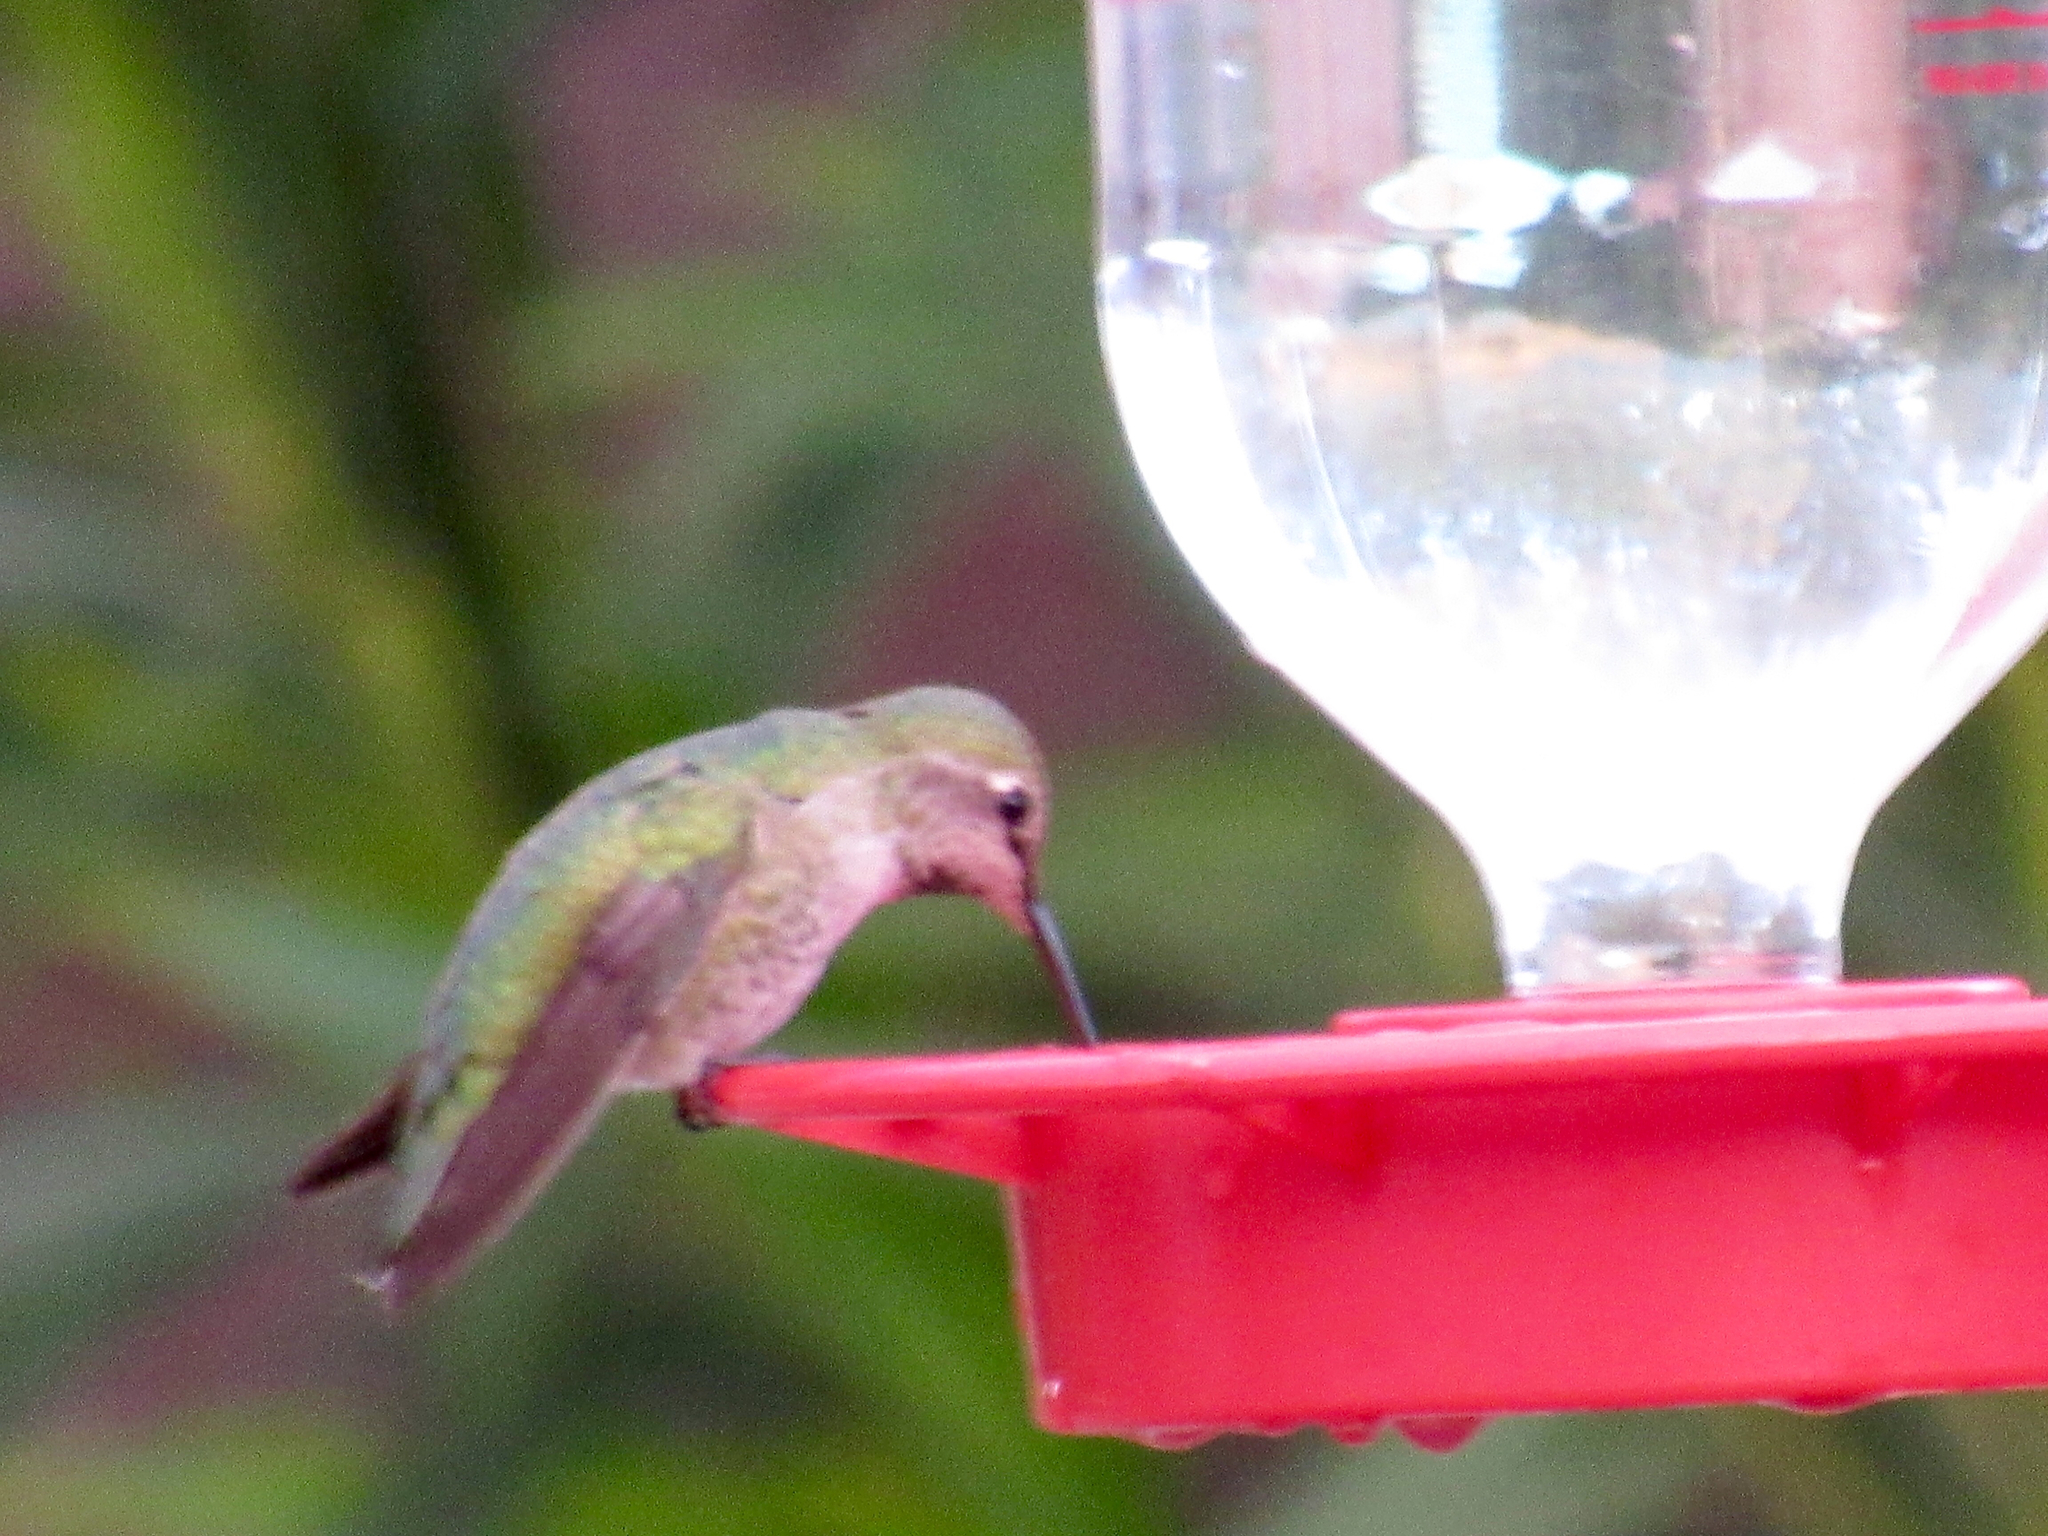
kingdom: Animalia
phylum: Chordata
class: Aves
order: Apodiformes
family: Trochilidae
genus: Calypte
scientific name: Calypte anna
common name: Anna's hummingbird
